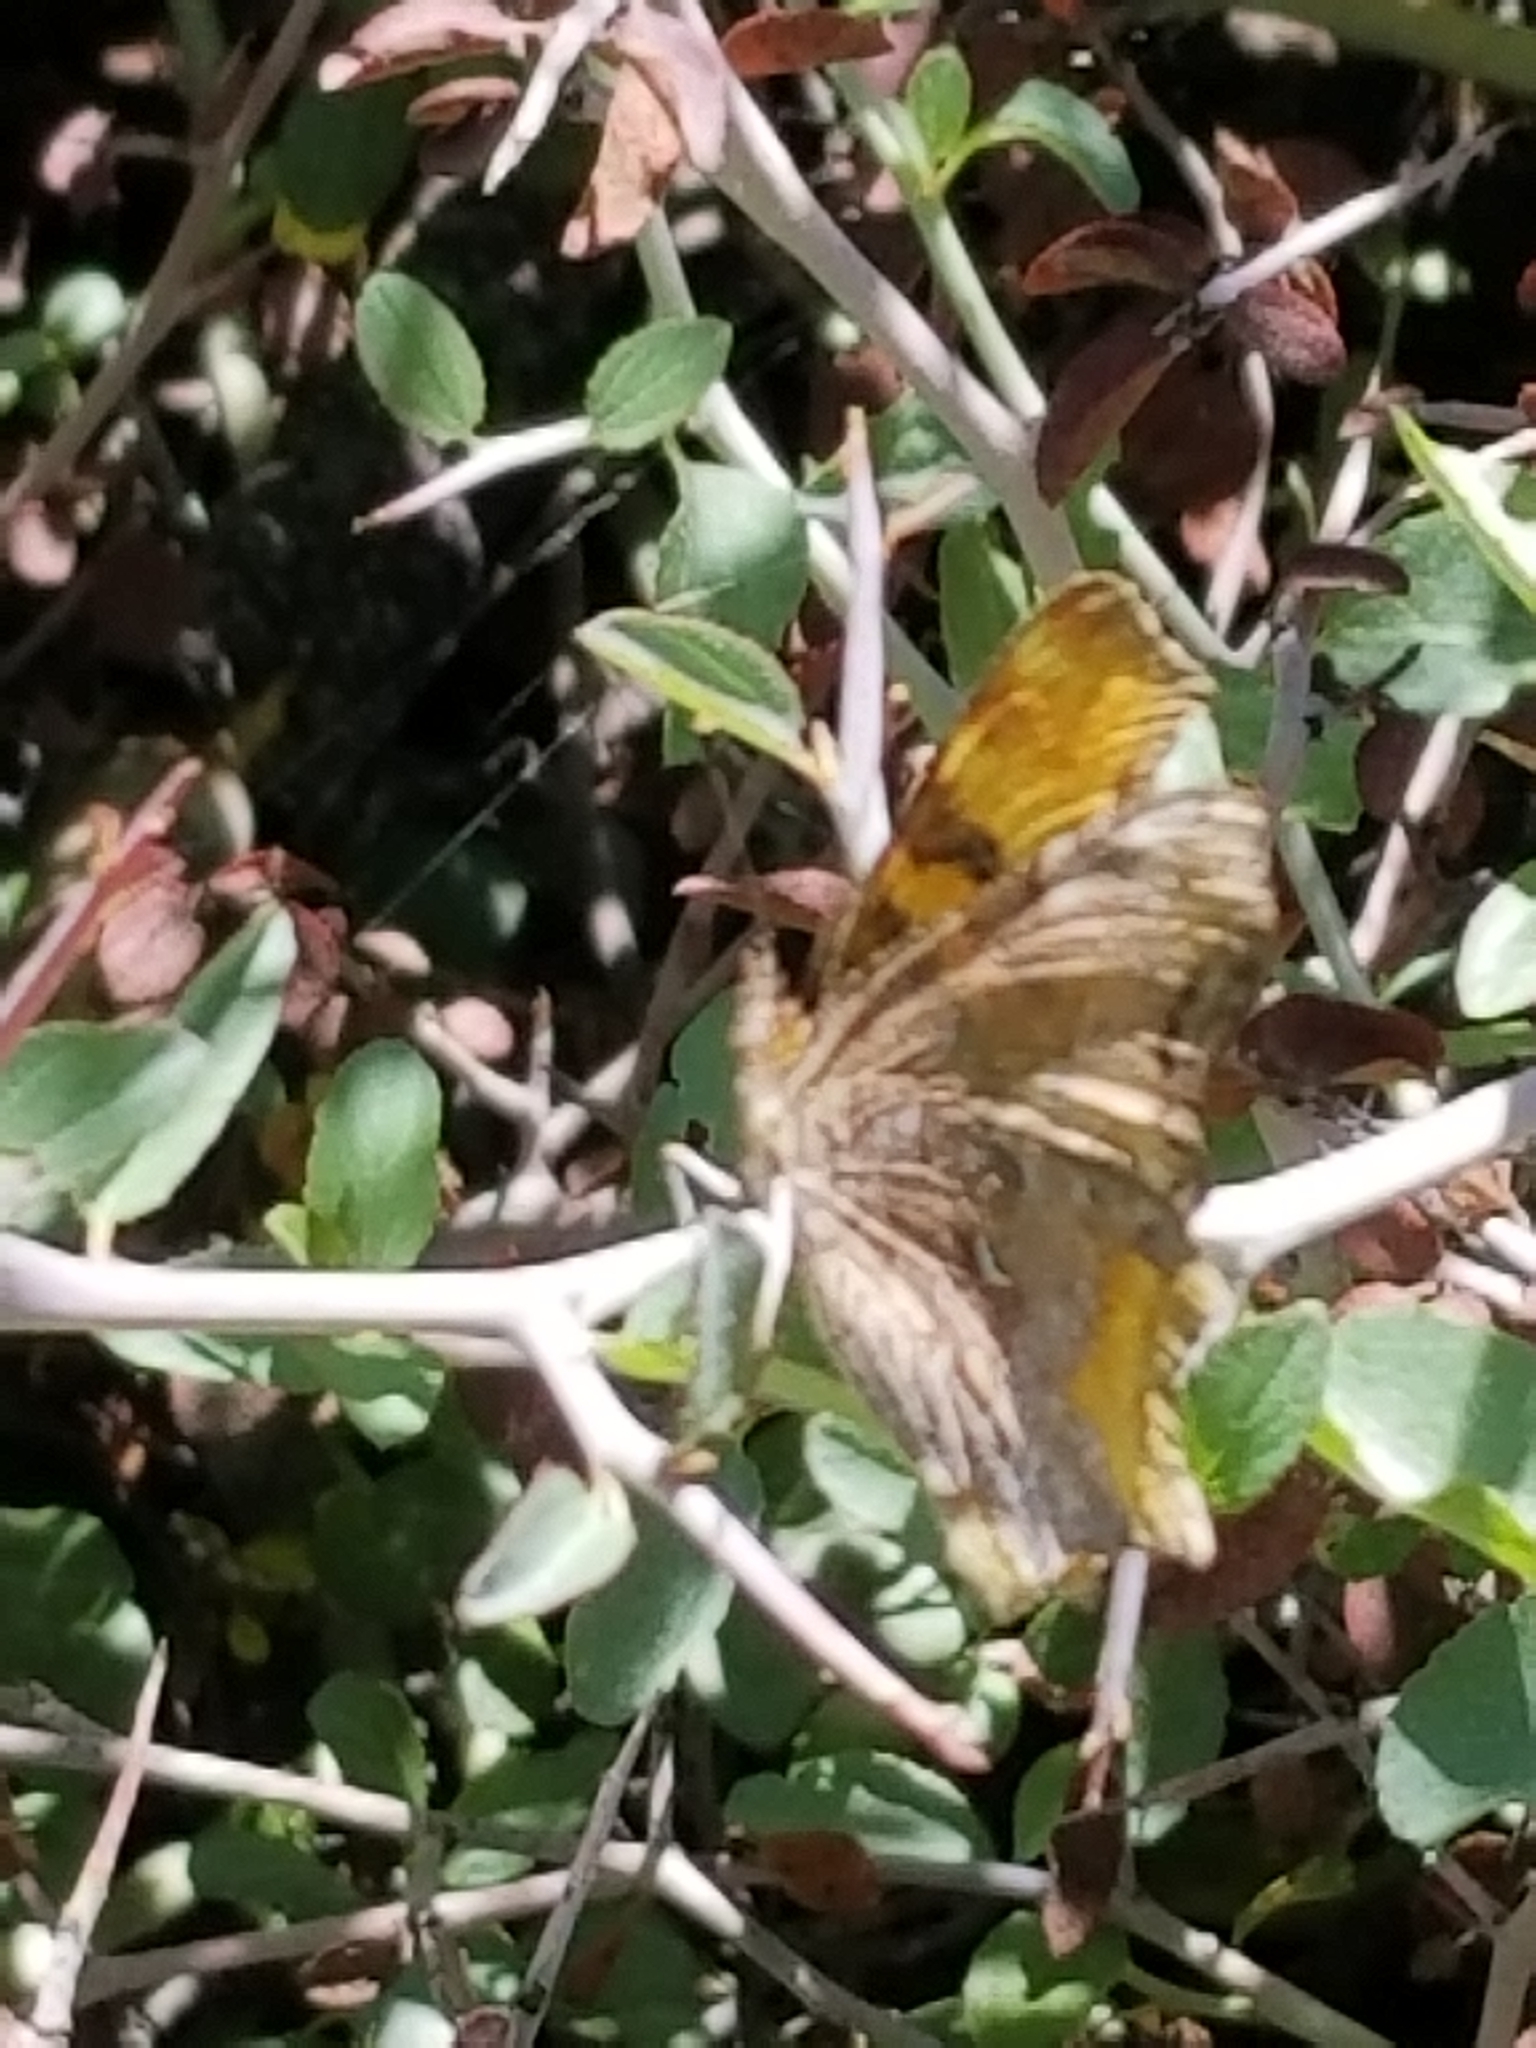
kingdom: Animalia
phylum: Arthropoda
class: Insecta
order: Lepidoptera
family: Nymphalidae
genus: Polygonia
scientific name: Polygonia gracilis
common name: Hoary comma
